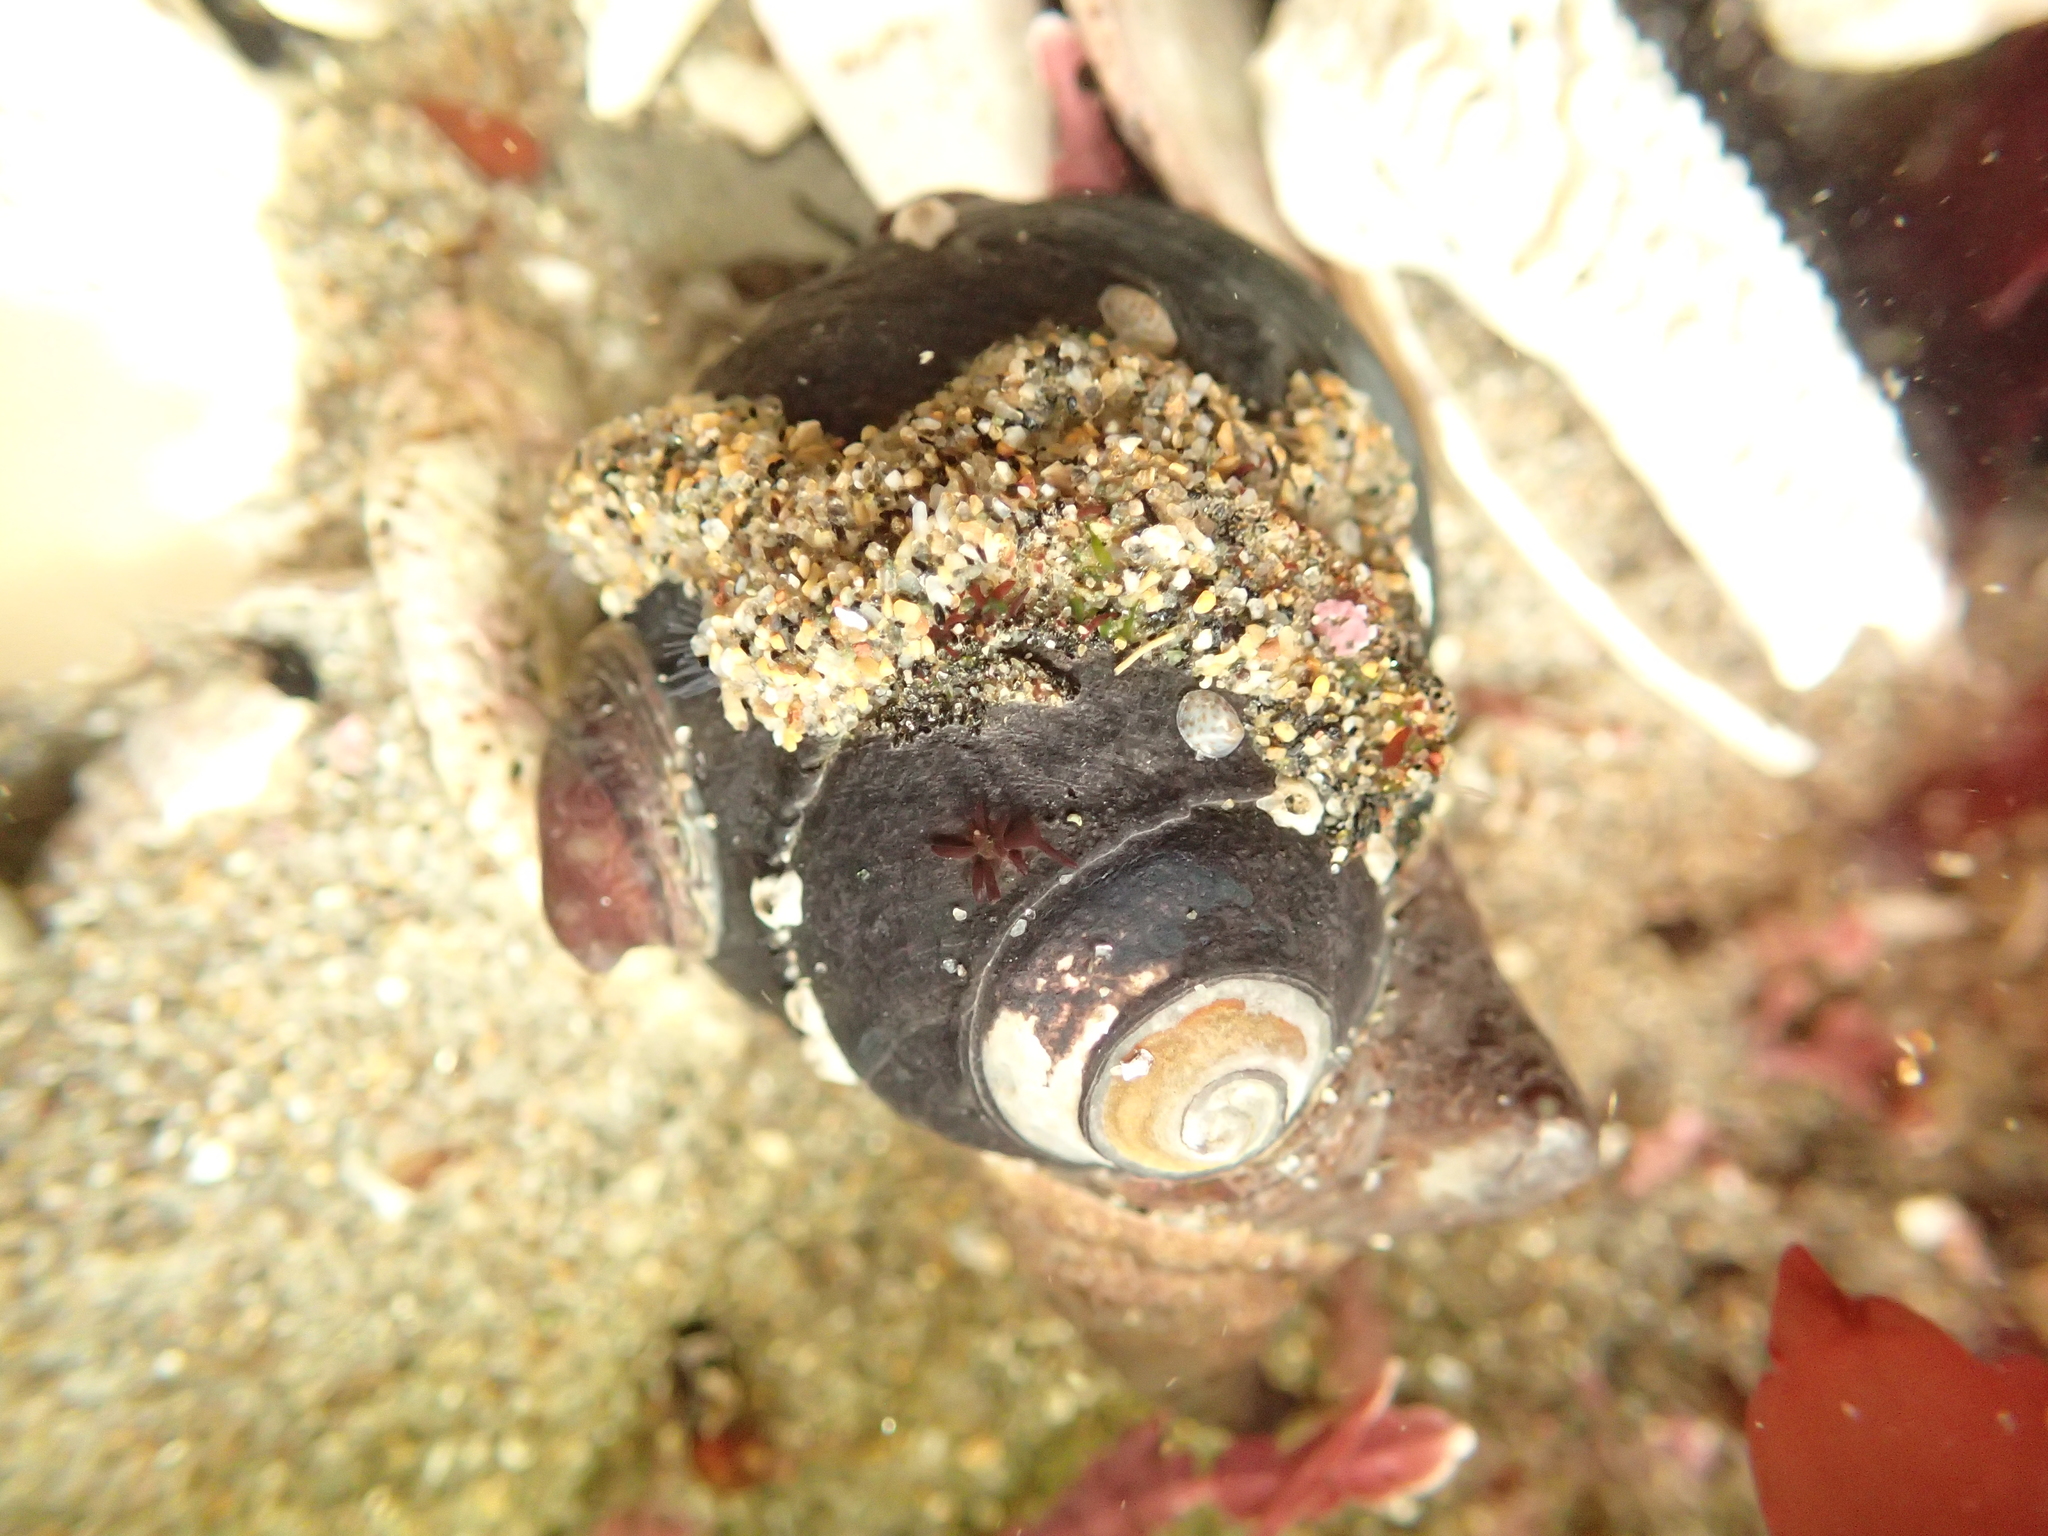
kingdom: Animalia
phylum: Mollusca
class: Gastropoda
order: Trochida
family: Tegulidae
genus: Tegula
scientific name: Tegula funebralis
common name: Black tegula
